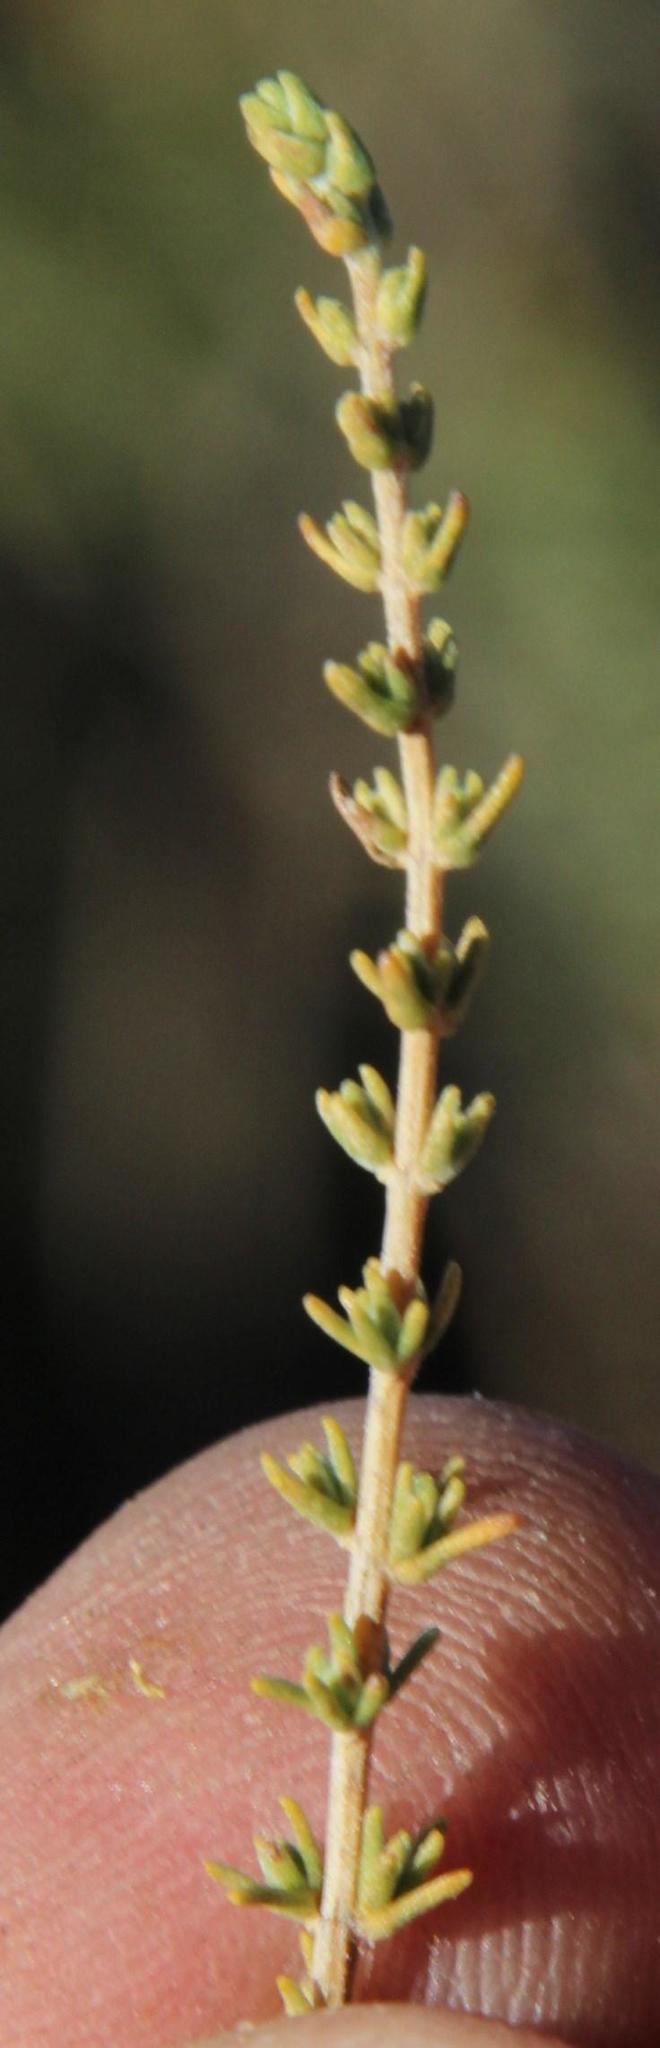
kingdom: Plantae
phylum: Tracheophyta
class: Magnoliopsida
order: Asterales
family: Asteraceae
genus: Tagetes
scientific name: Tagetes minuta
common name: Muster john henry
